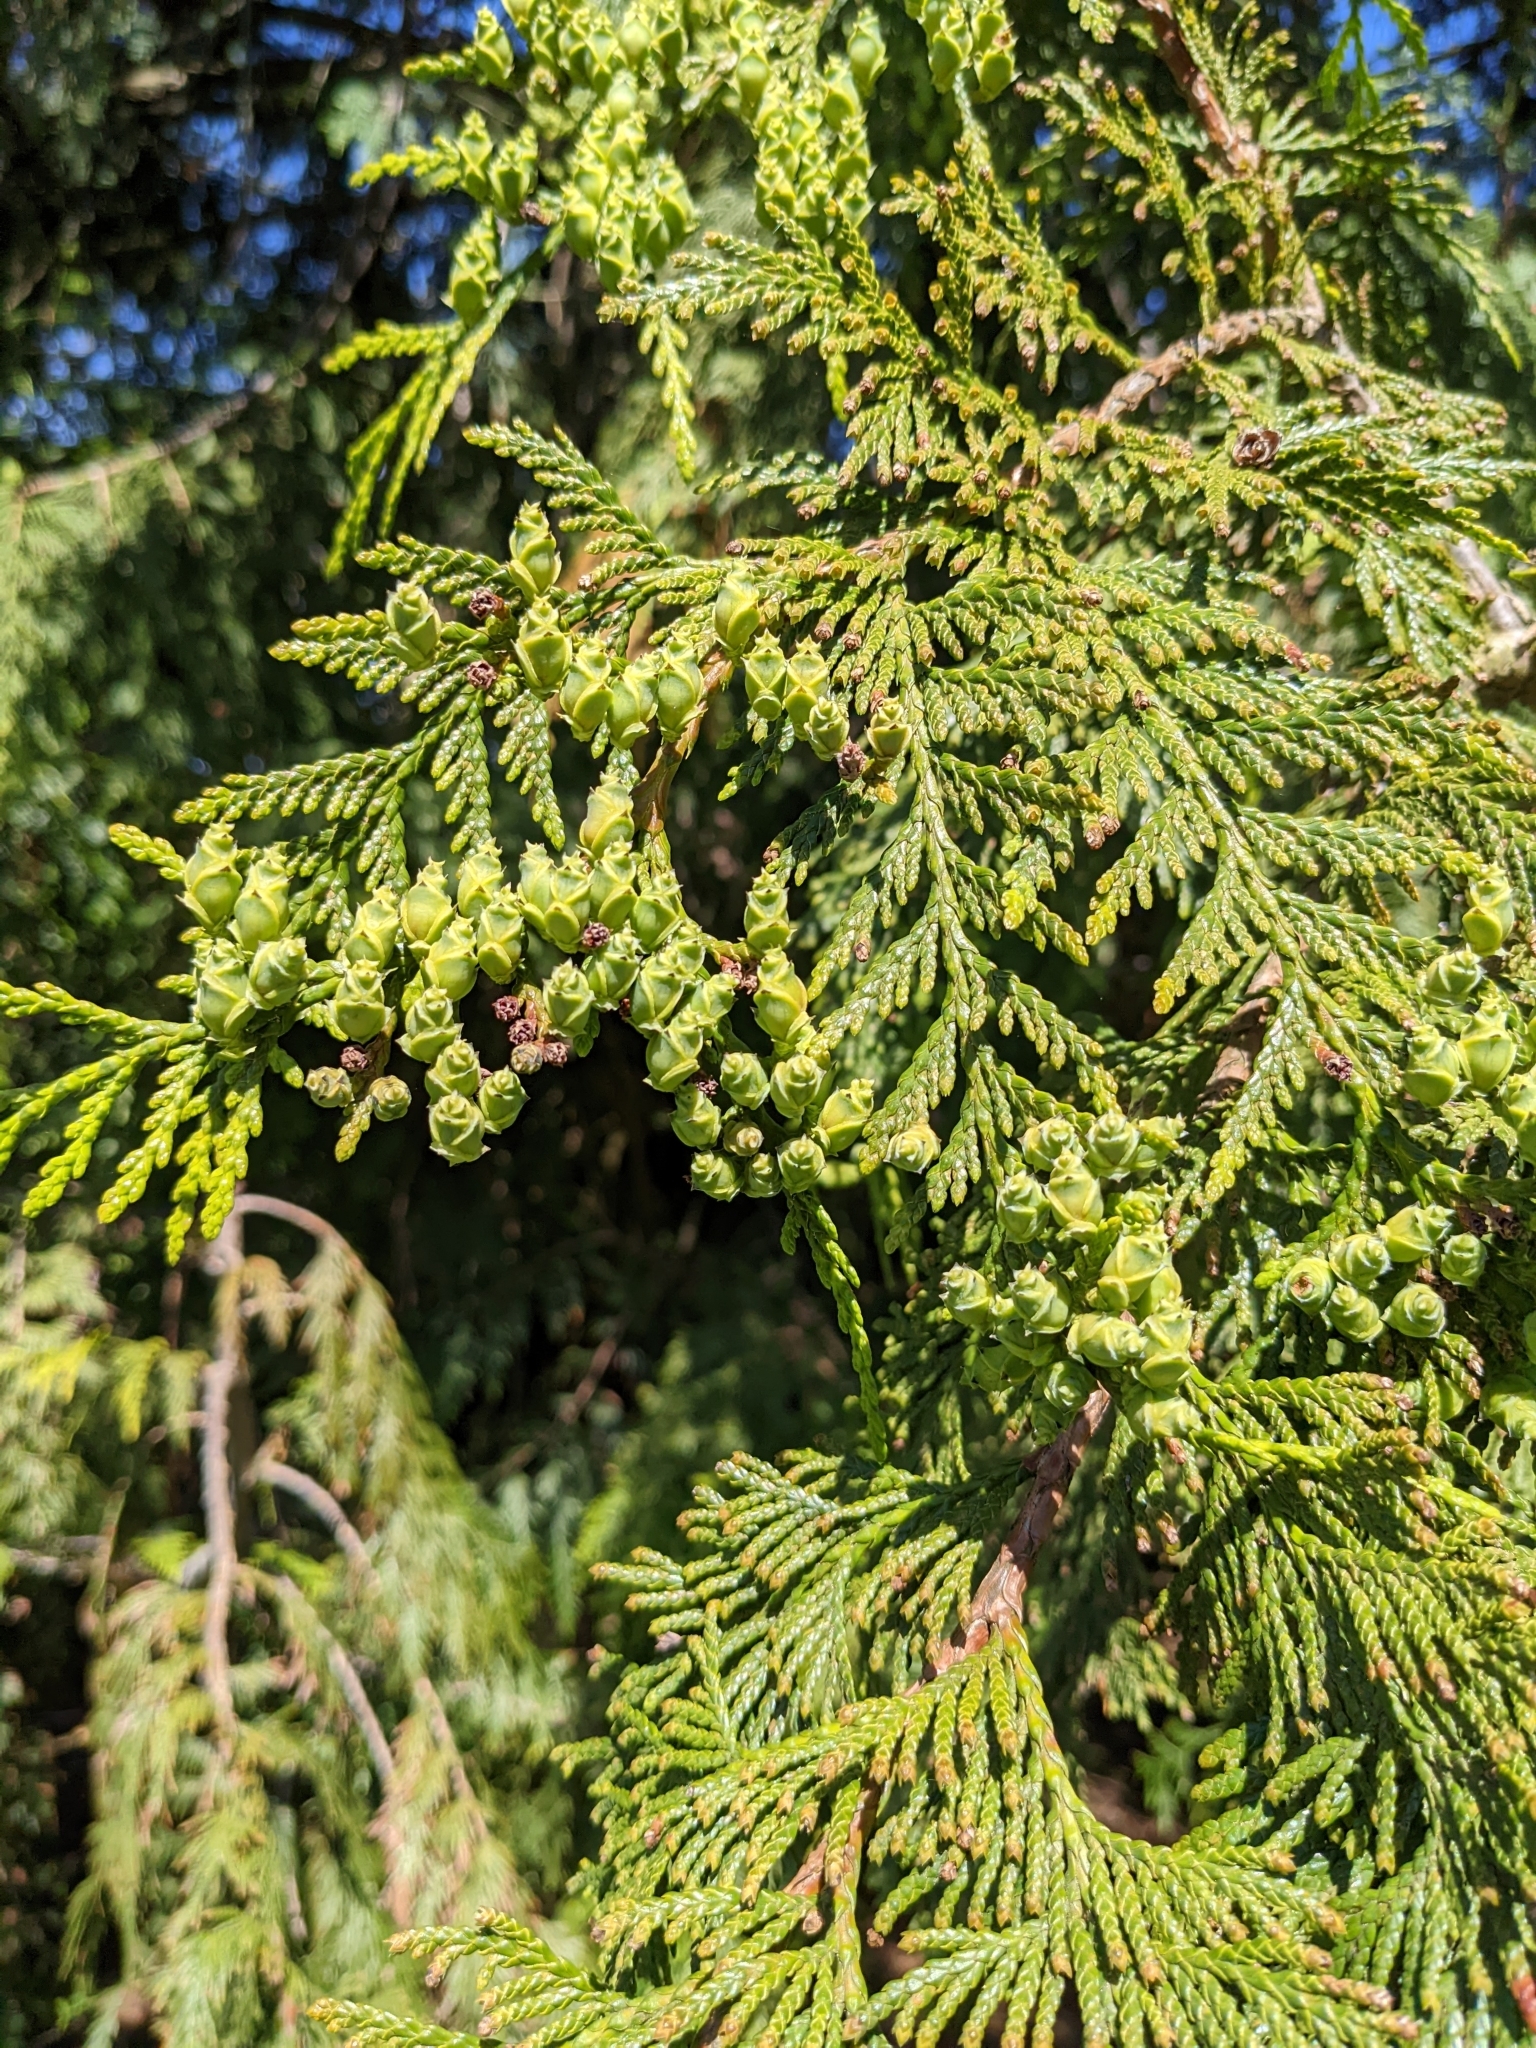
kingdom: Plantae
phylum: Tracheophyta
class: Pinopsida
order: Pinales
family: Cupressaceae
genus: Thuja
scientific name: Thuja plicata
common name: Western red-cedar
